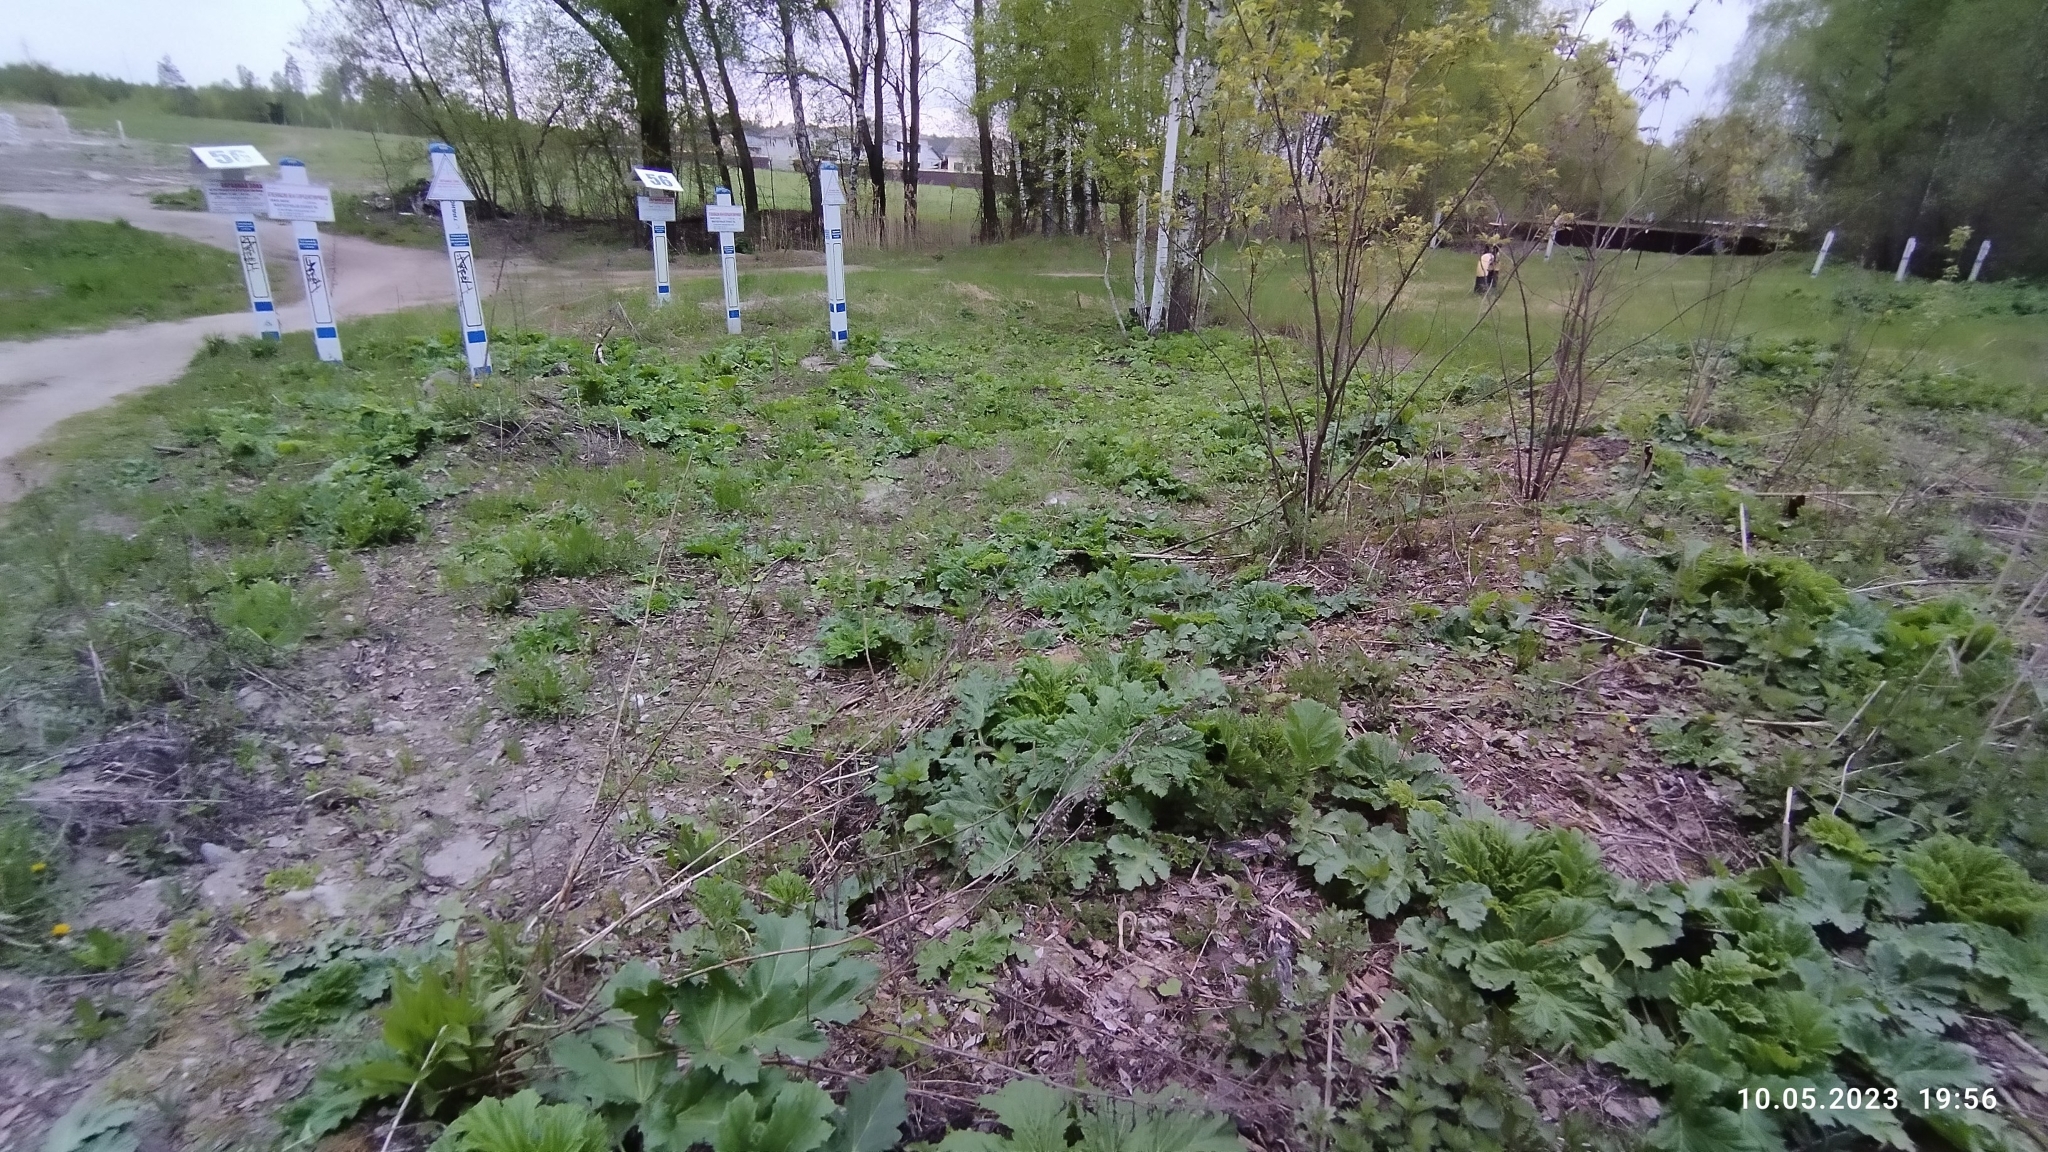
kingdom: Plantae
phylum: Tracheophyta
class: Magnoliopsida
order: Apiales
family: Apiaceae
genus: Heracleum
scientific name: Heracleum sosnowskyi
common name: Sosnowsky's hogweed
